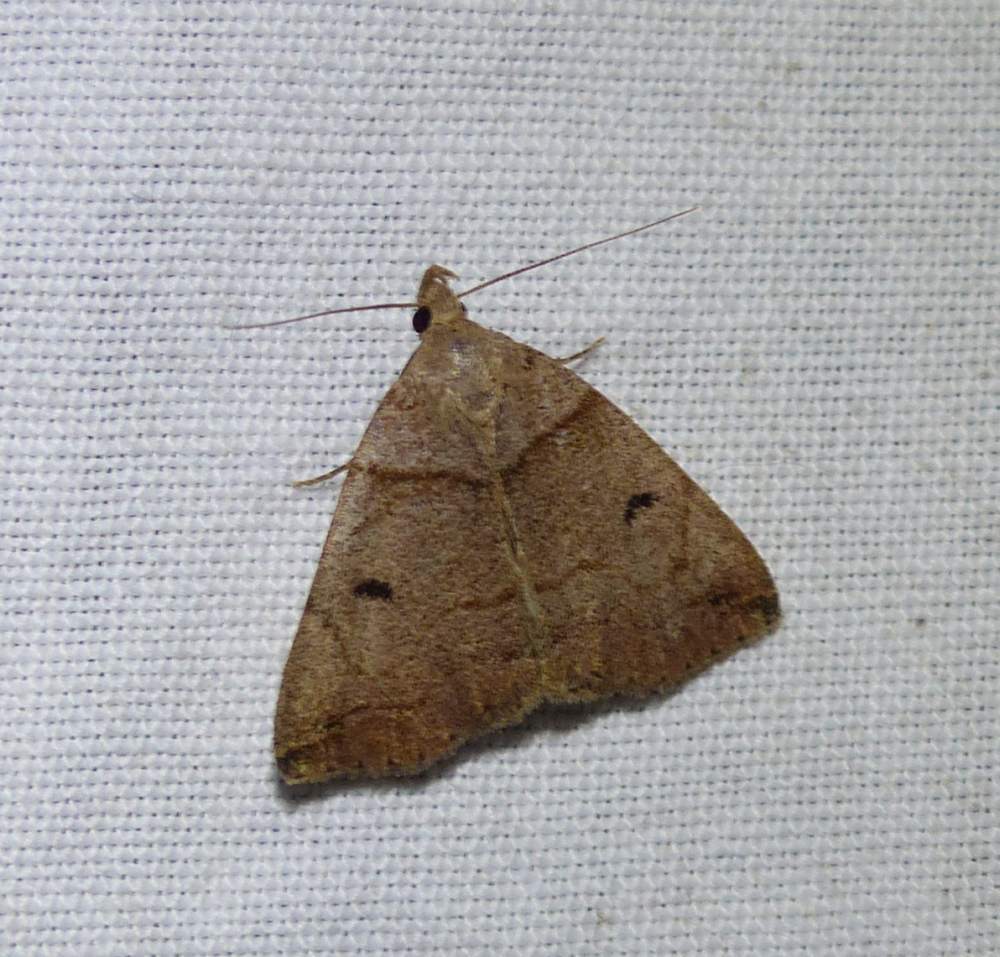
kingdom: Animalia
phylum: Arthropoda
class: Insecta
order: Lepidoptera
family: Erebidae
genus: Zanclognatha
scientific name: Zanclognatha laevigata
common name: Variable fan-foot
